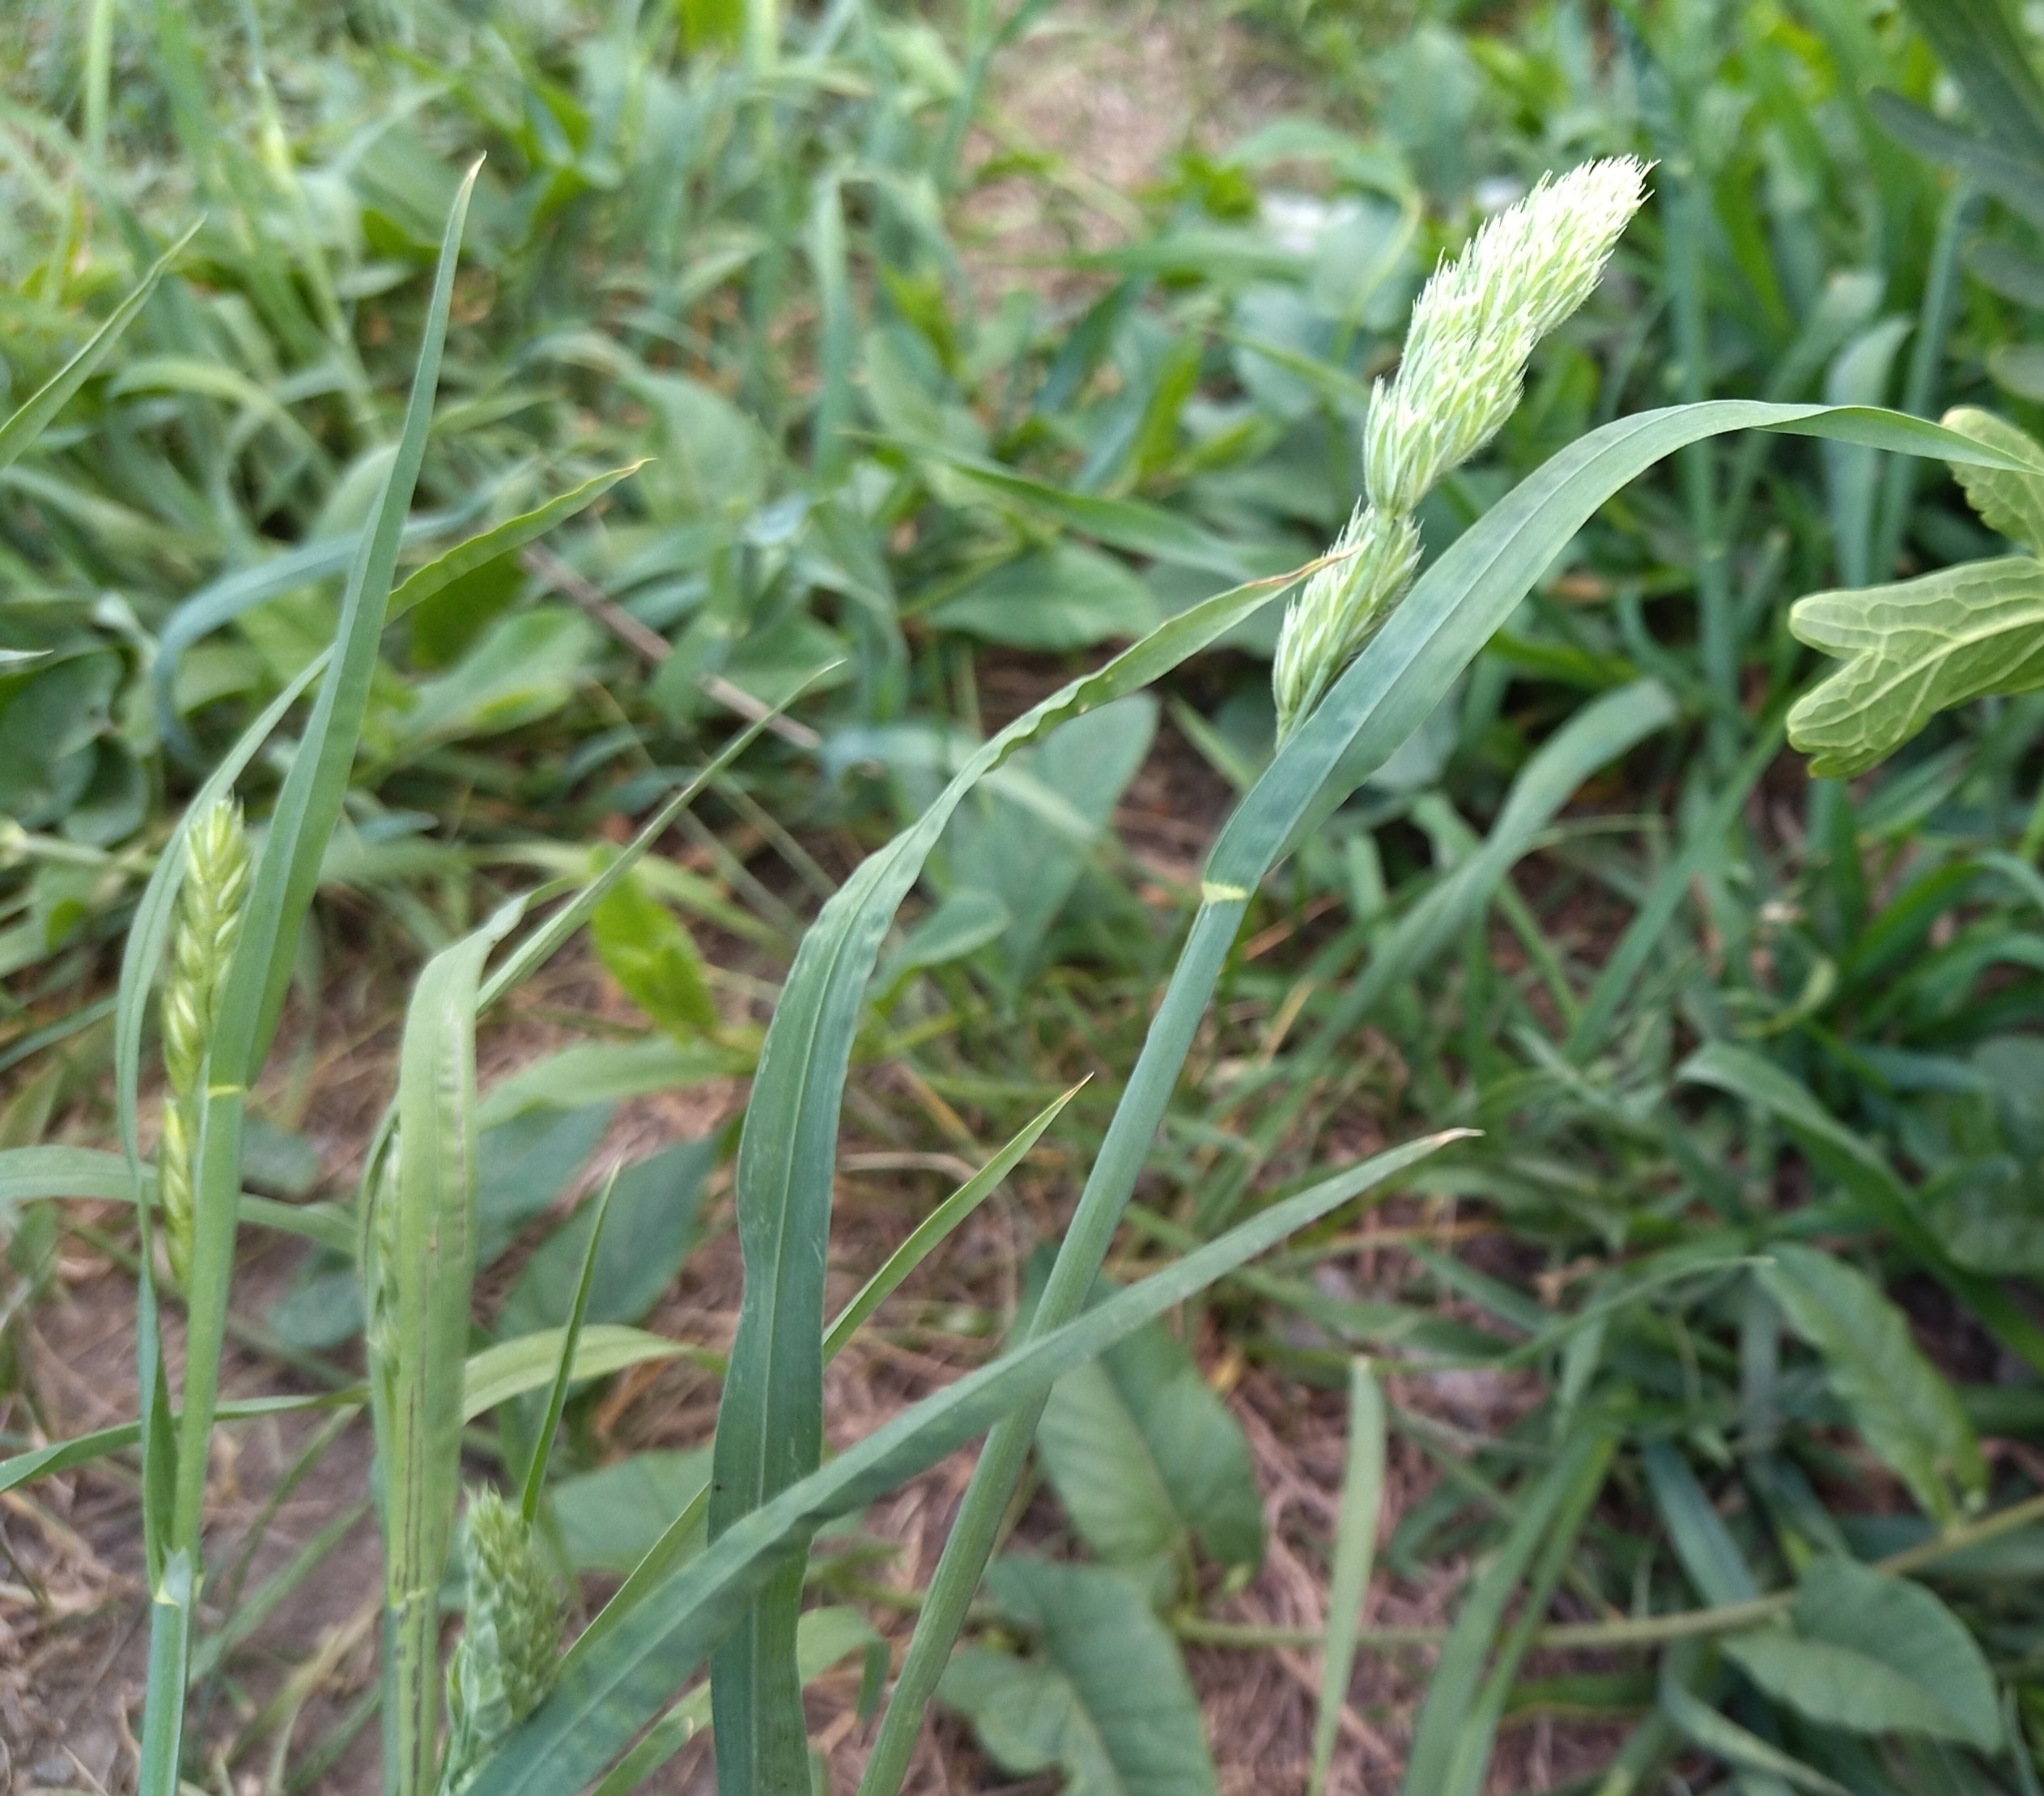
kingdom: Plantae
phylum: Tracheophyta
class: Liliopsida
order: Poales
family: Poaceae
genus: Dactylis
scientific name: Dactylis glomerata
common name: Orchardgrass
